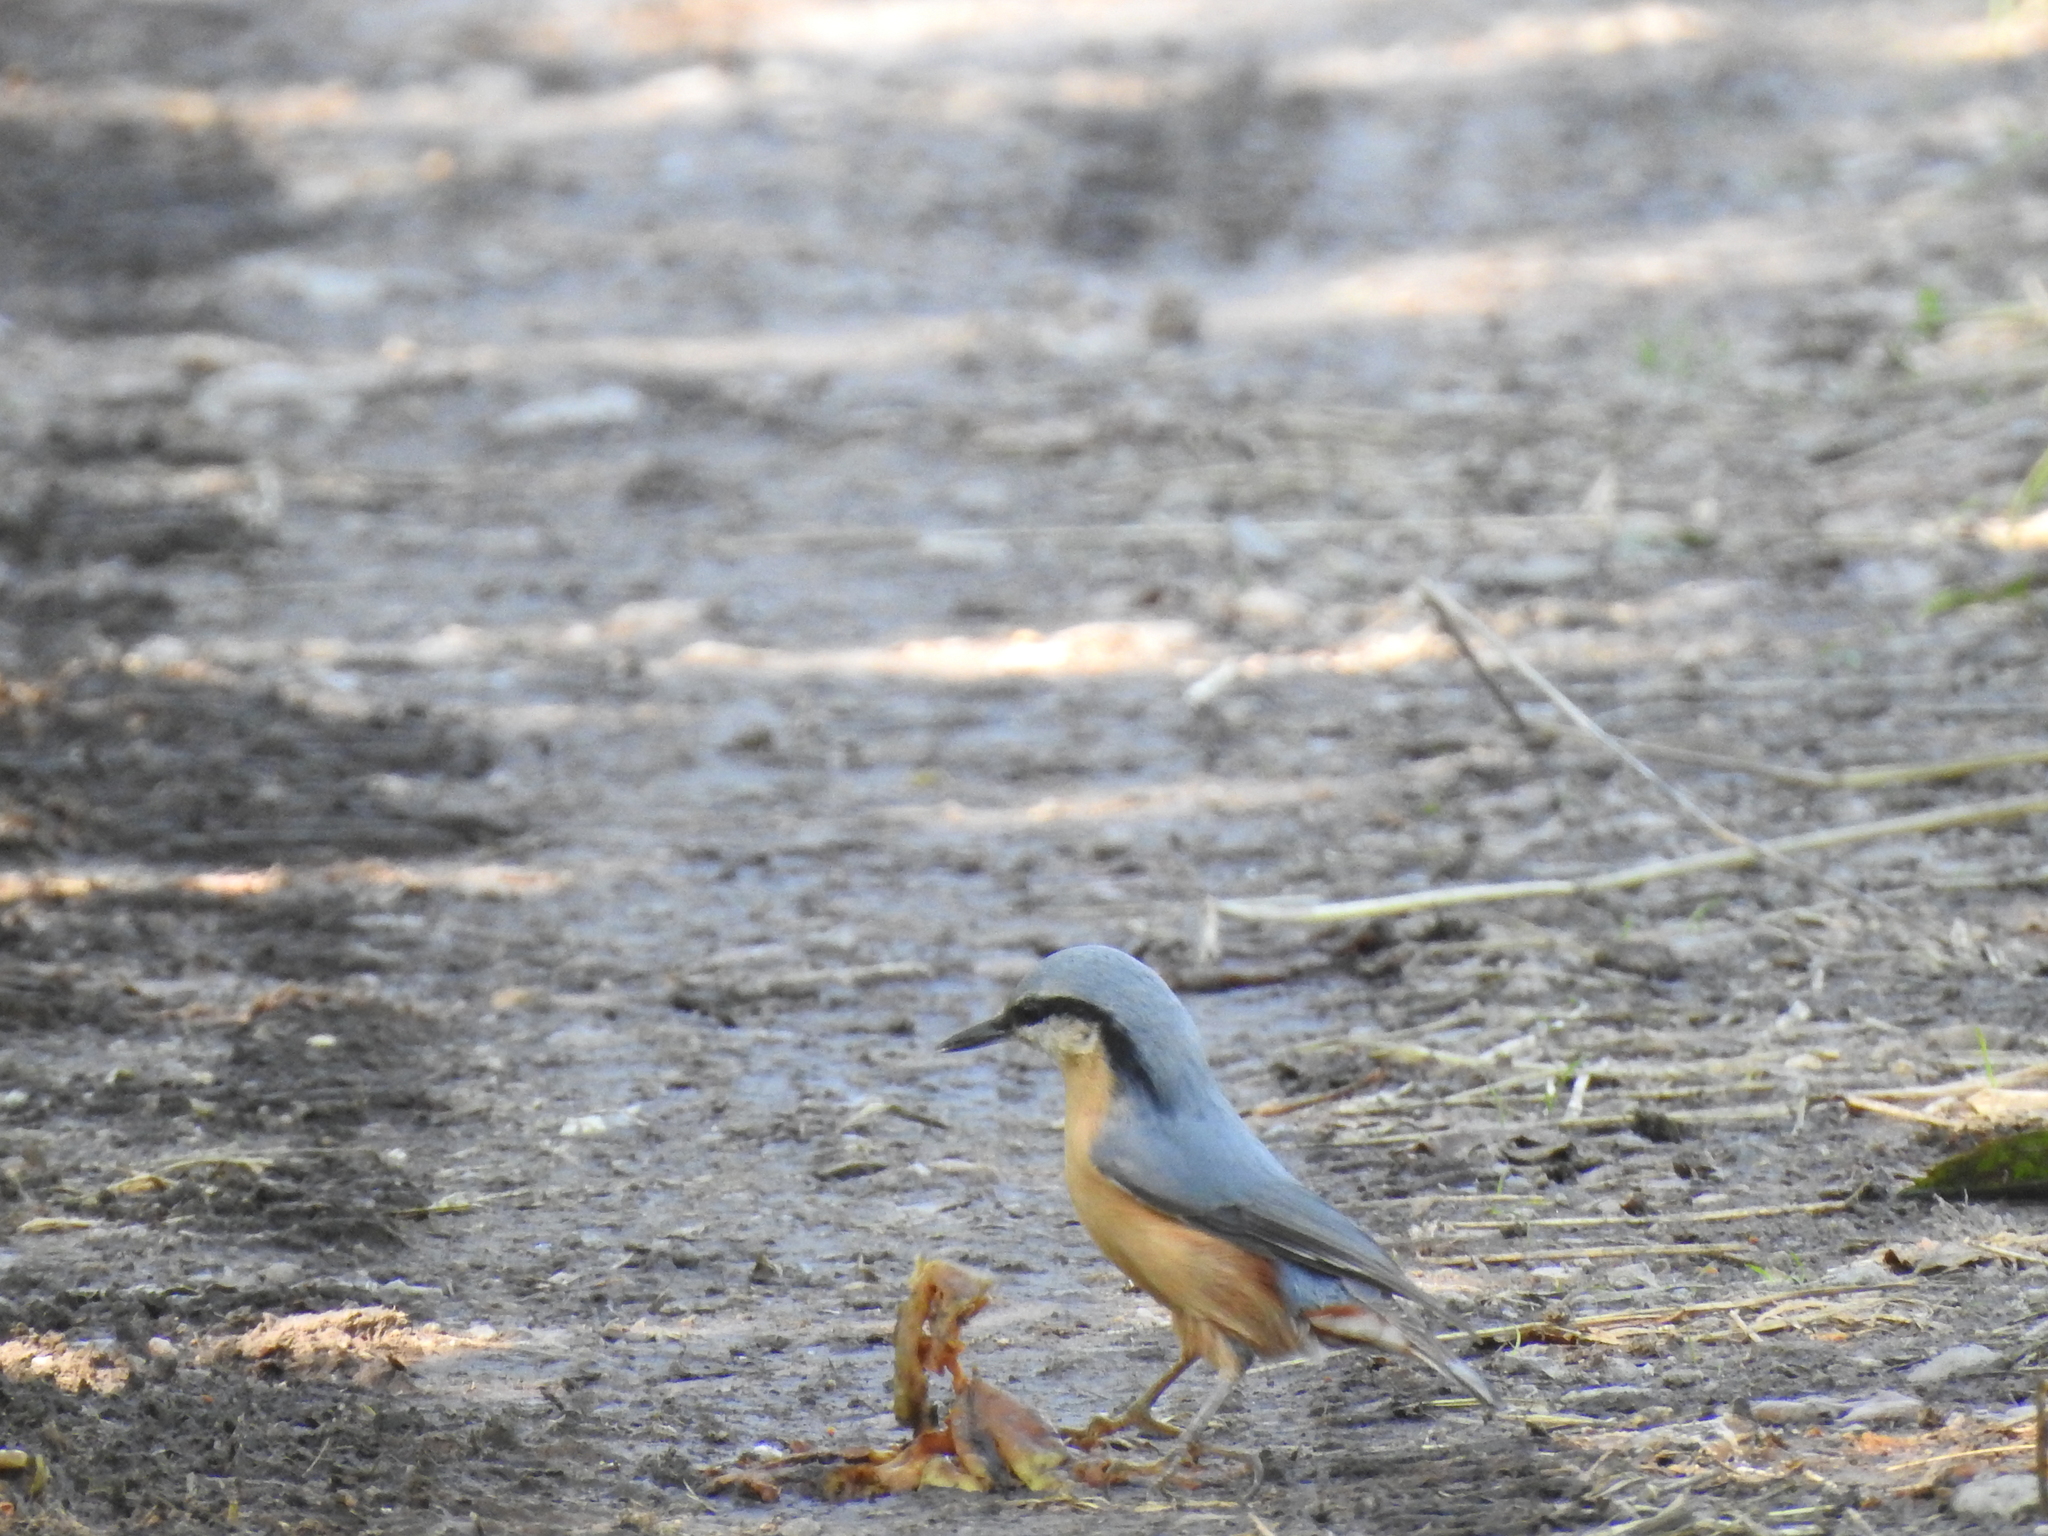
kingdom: Animalia
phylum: Chordata
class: Aves
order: Passeriformes
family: Sittidae
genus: Sitta
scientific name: Sitta europaea
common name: Eurasian nuthatch
